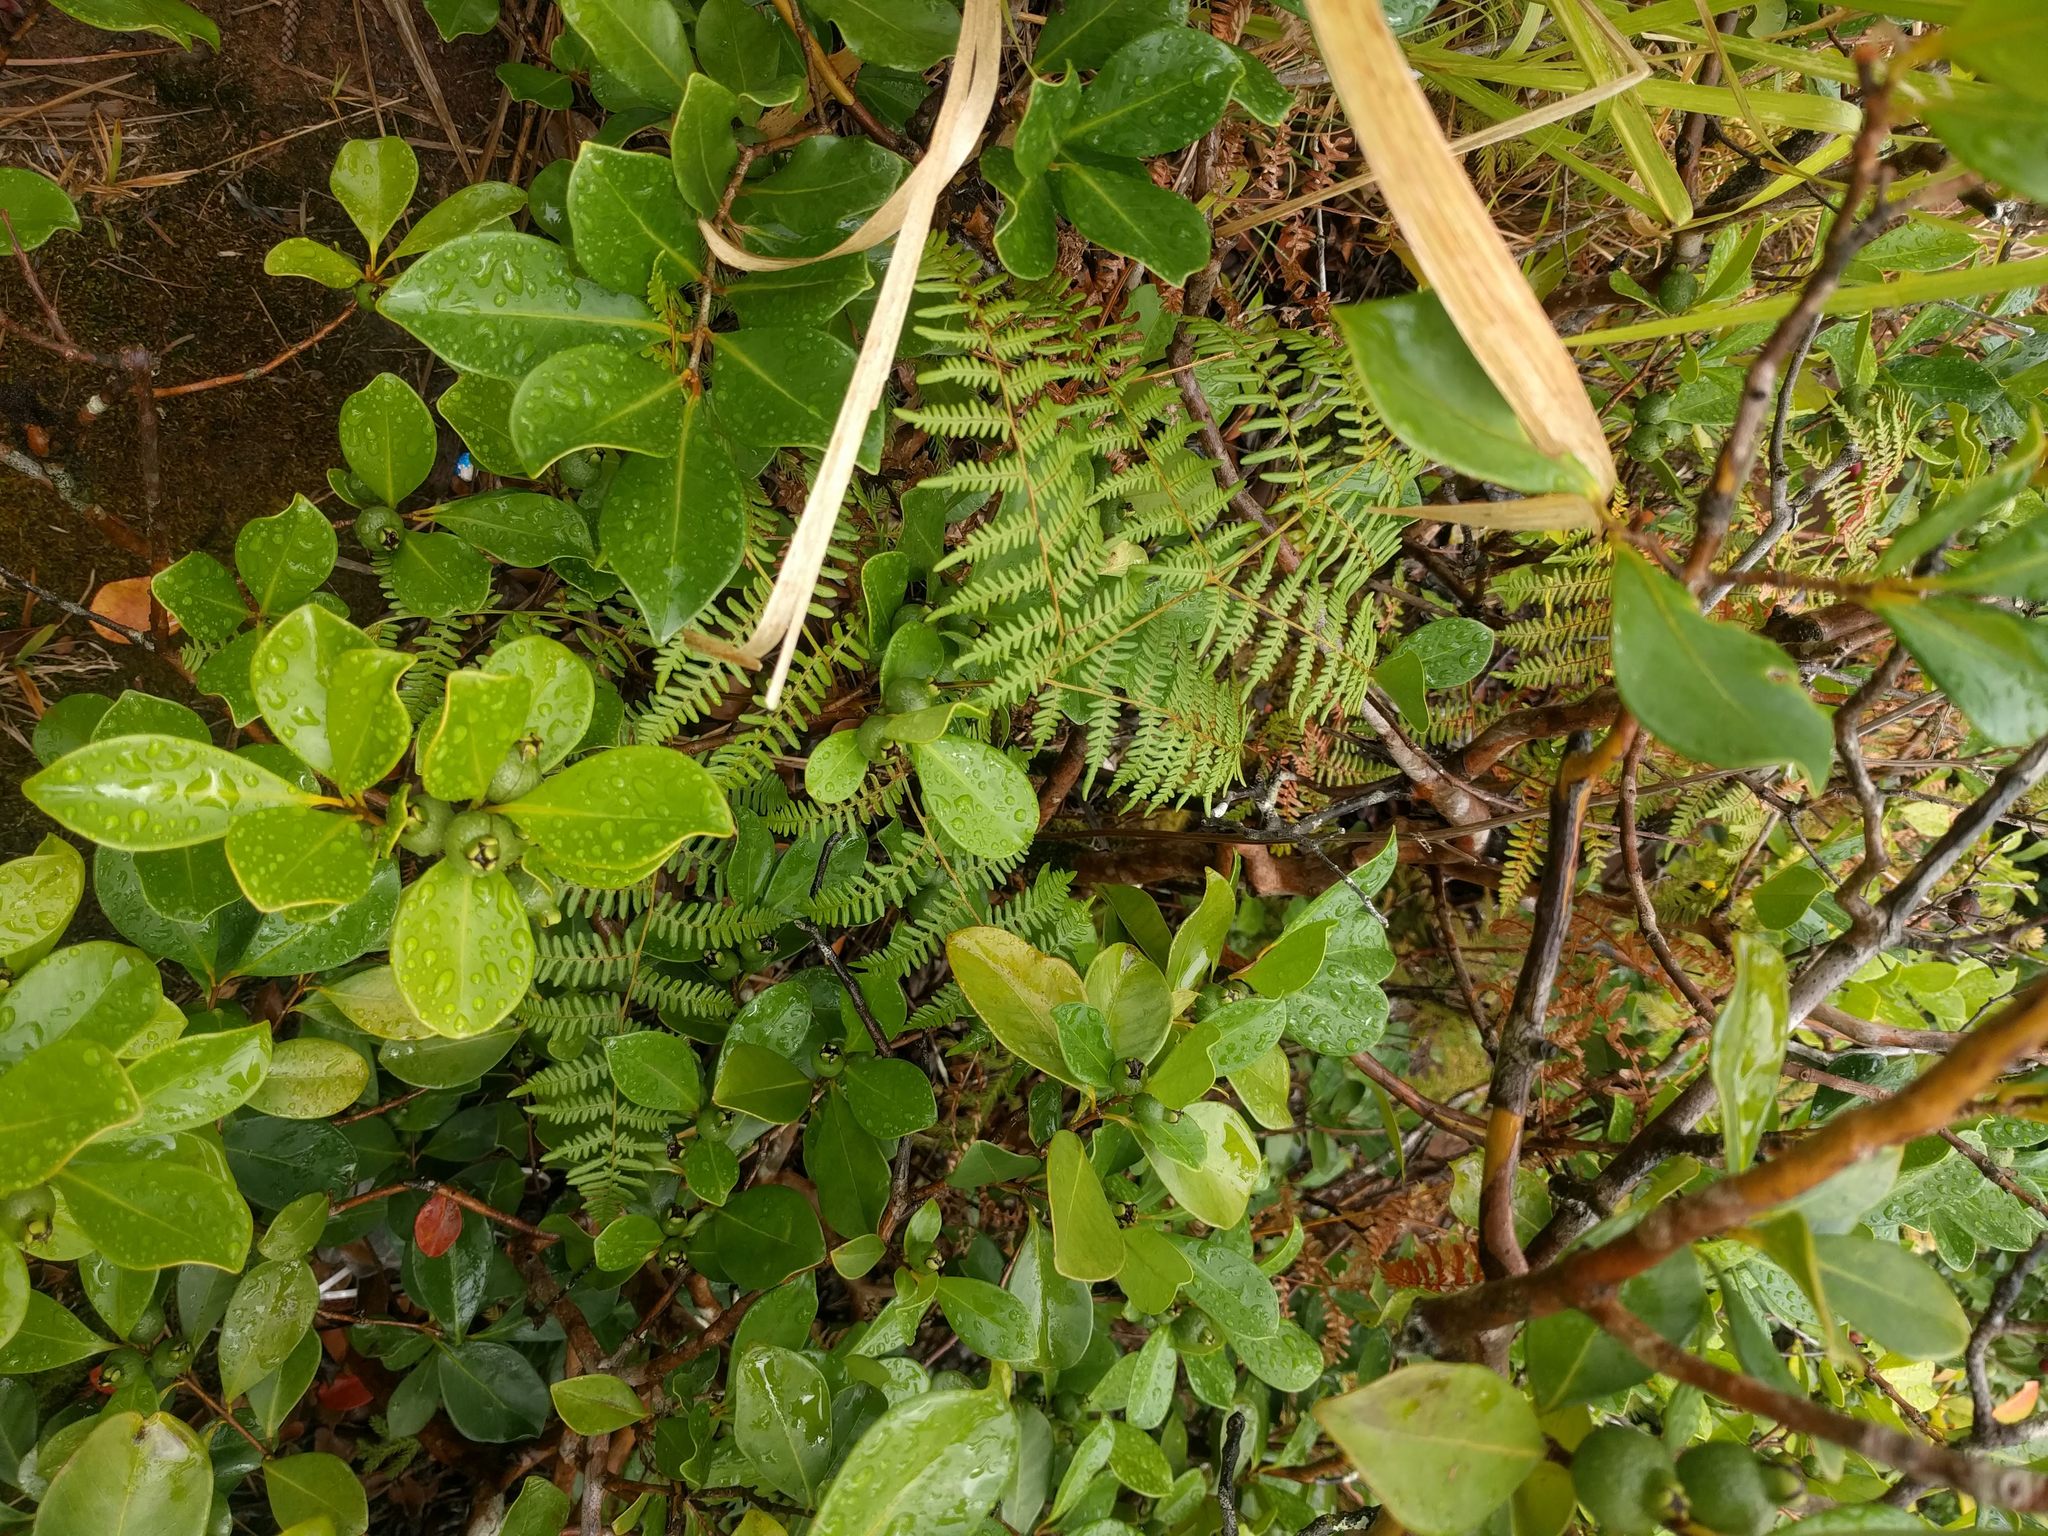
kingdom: Plantae
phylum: Tracheophyta
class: Polypodiopsida
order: Polypodiales
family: Dennstaedtiaceae
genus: Pteridium
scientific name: Pteridium aquilinum
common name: Bracken
